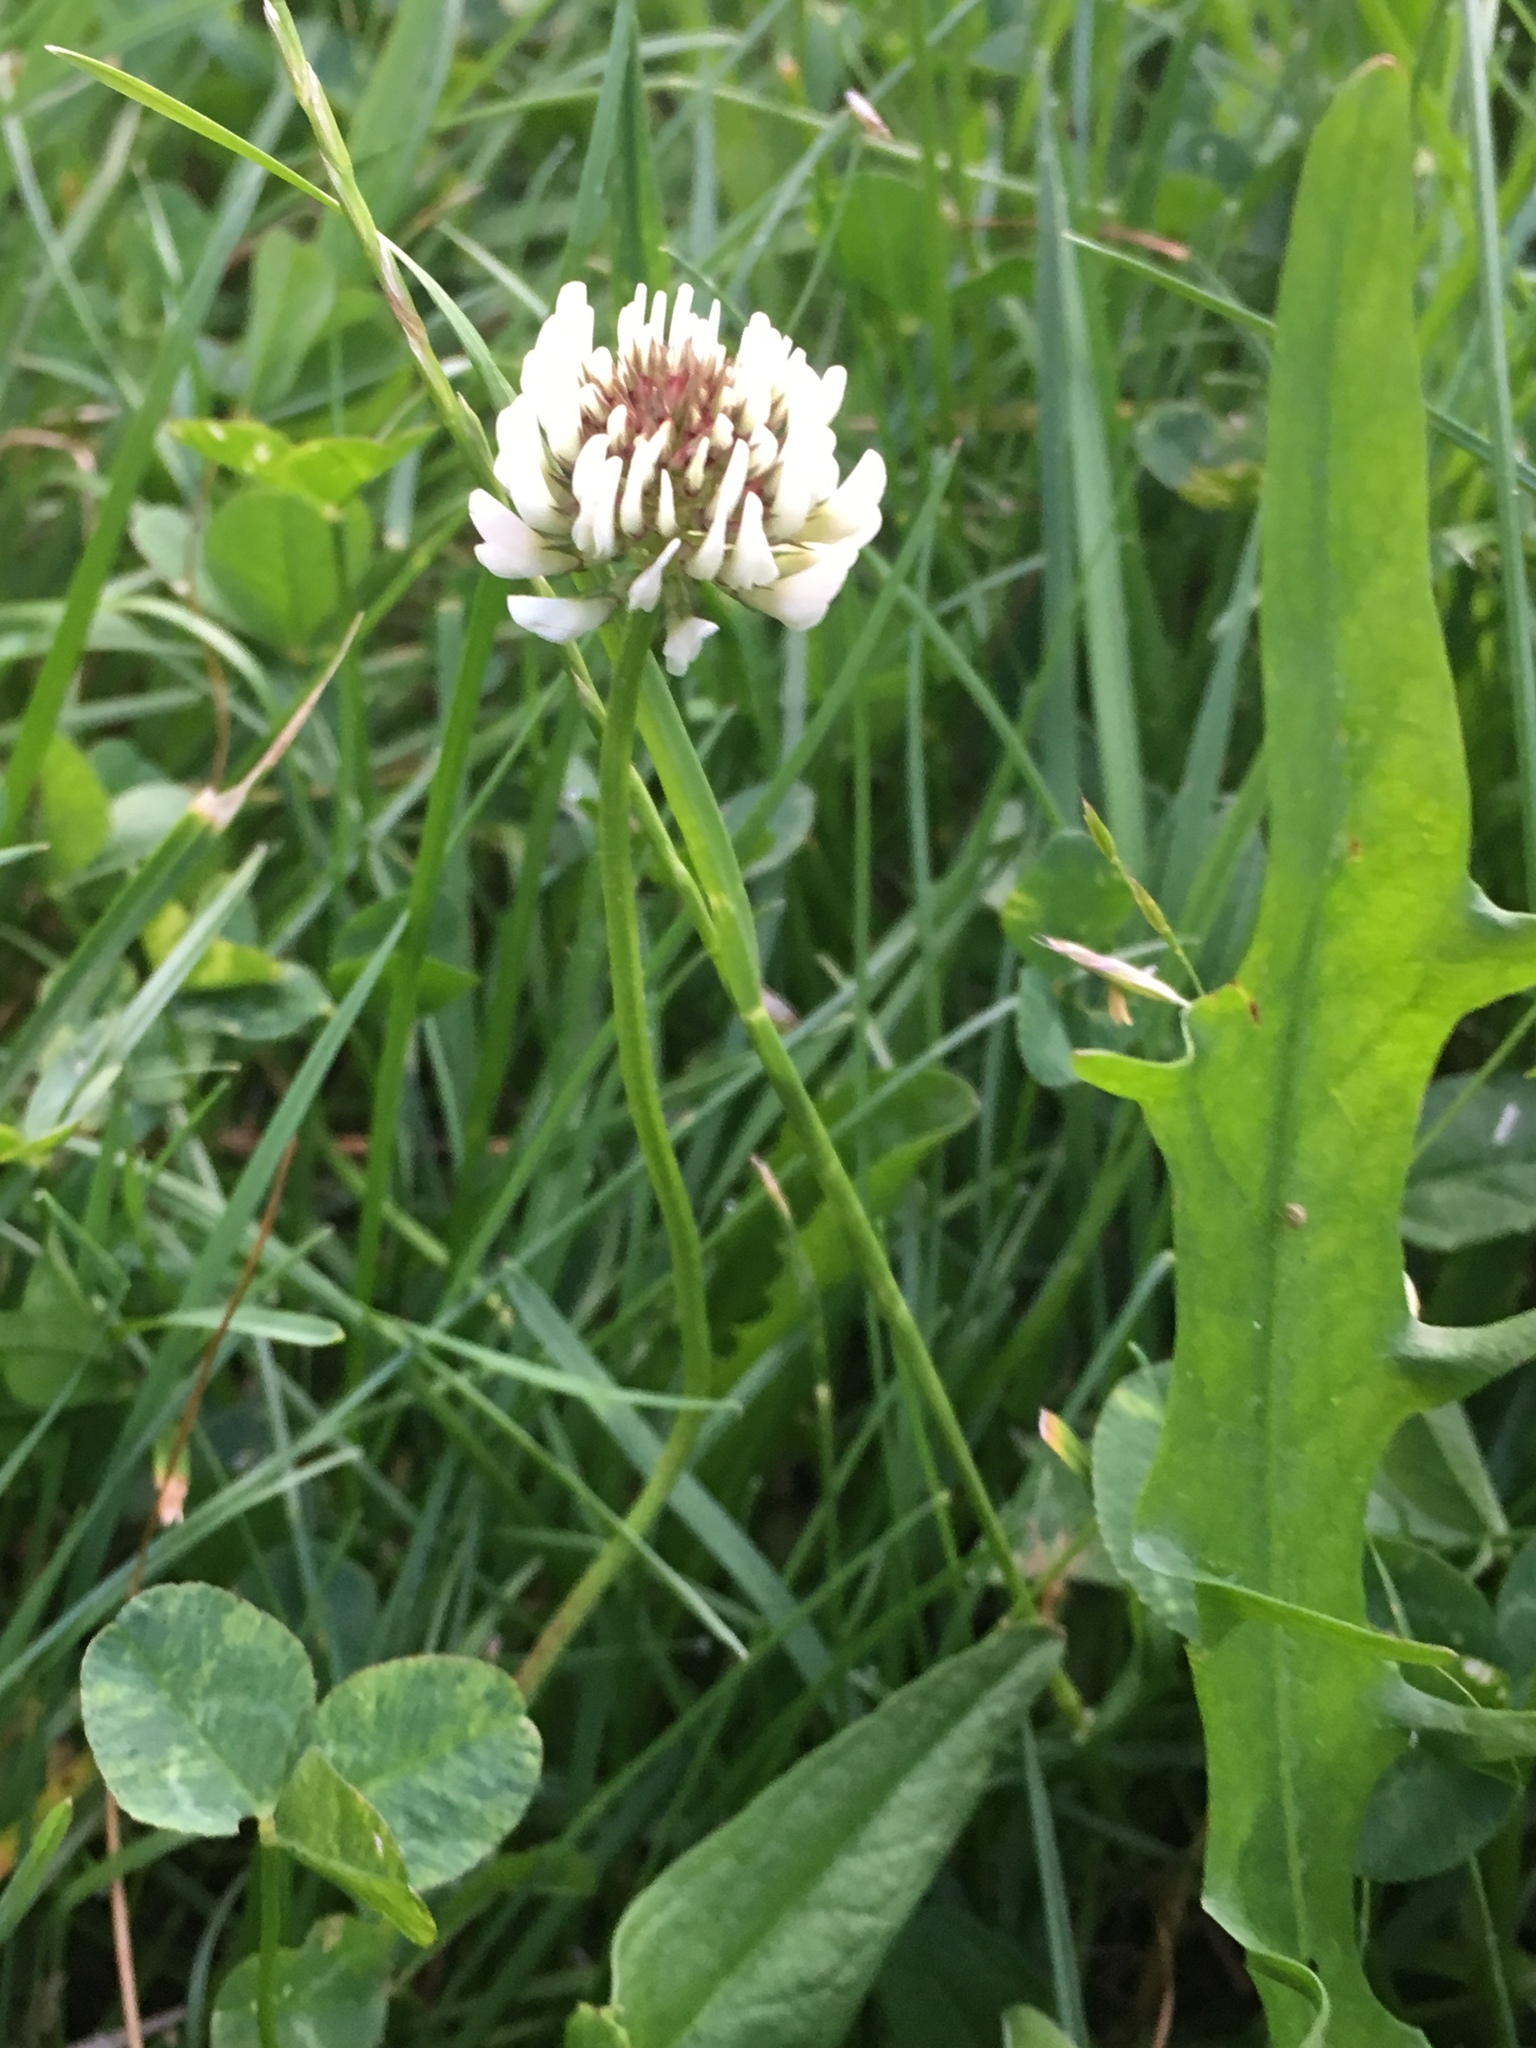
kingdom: Plantae
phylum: Tracheophyta
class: Magnoliopsida
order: Fabales
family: Fabaceae
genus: Trifolium
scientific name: Trifolium repens
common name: White clover
